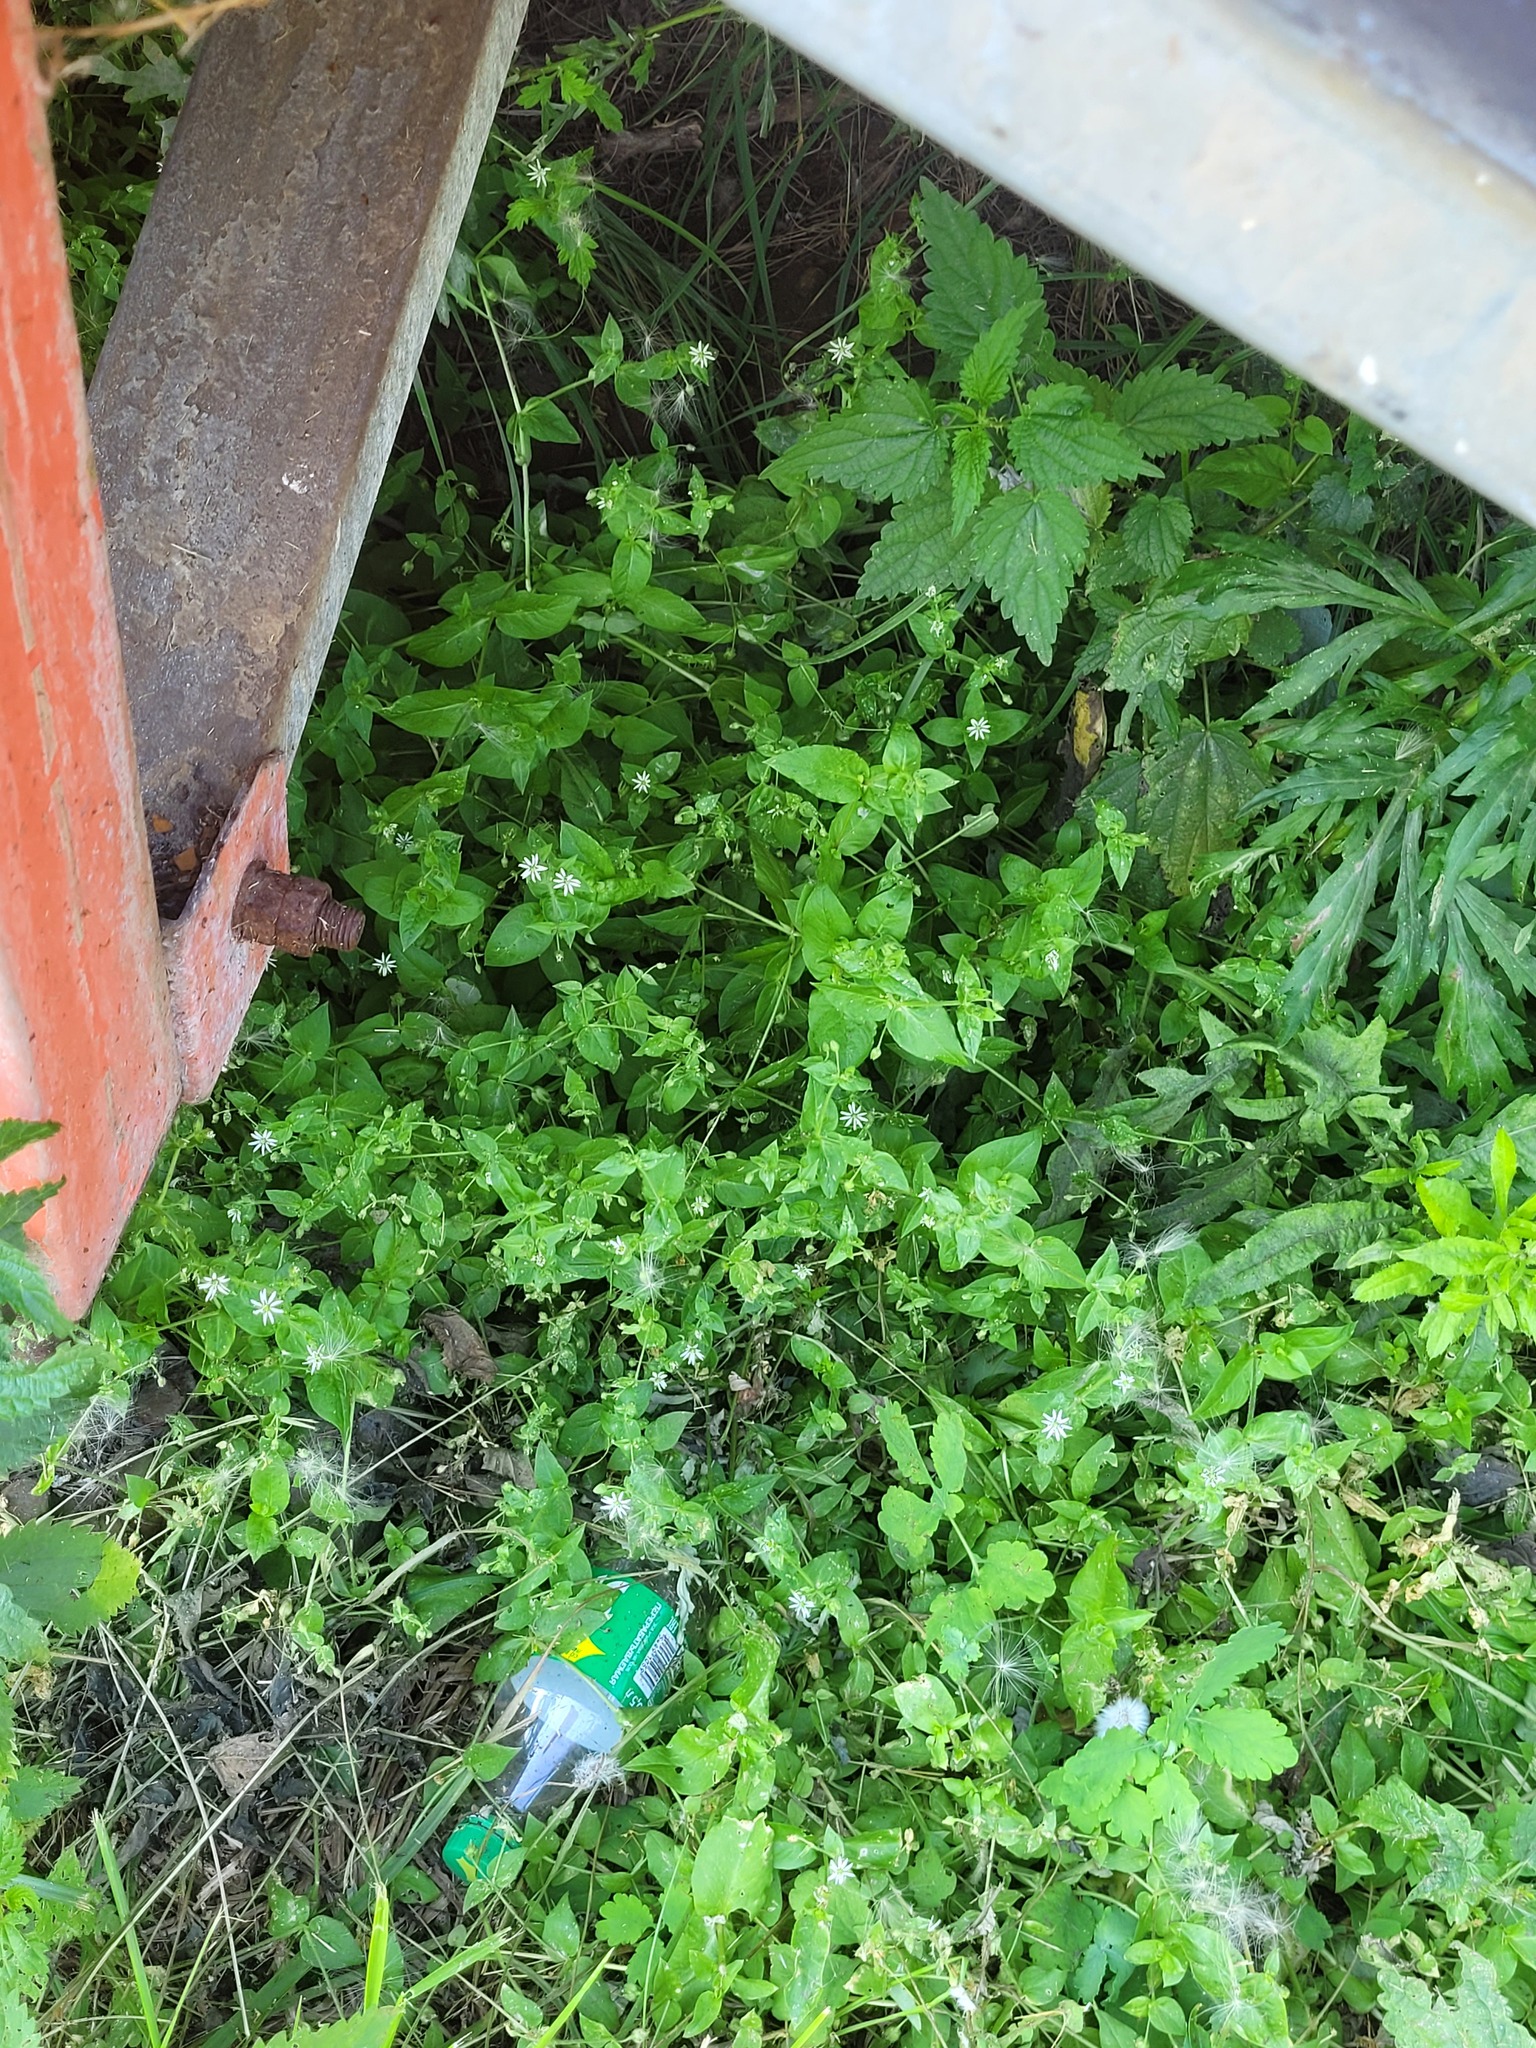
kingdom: Plantae
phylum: Tracheophyta
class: Magnoliopsida
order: Caryophyllales
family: Caryophyllaceae
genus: Stellaria
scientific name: Stellaria aquatica
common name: Water chickweed
